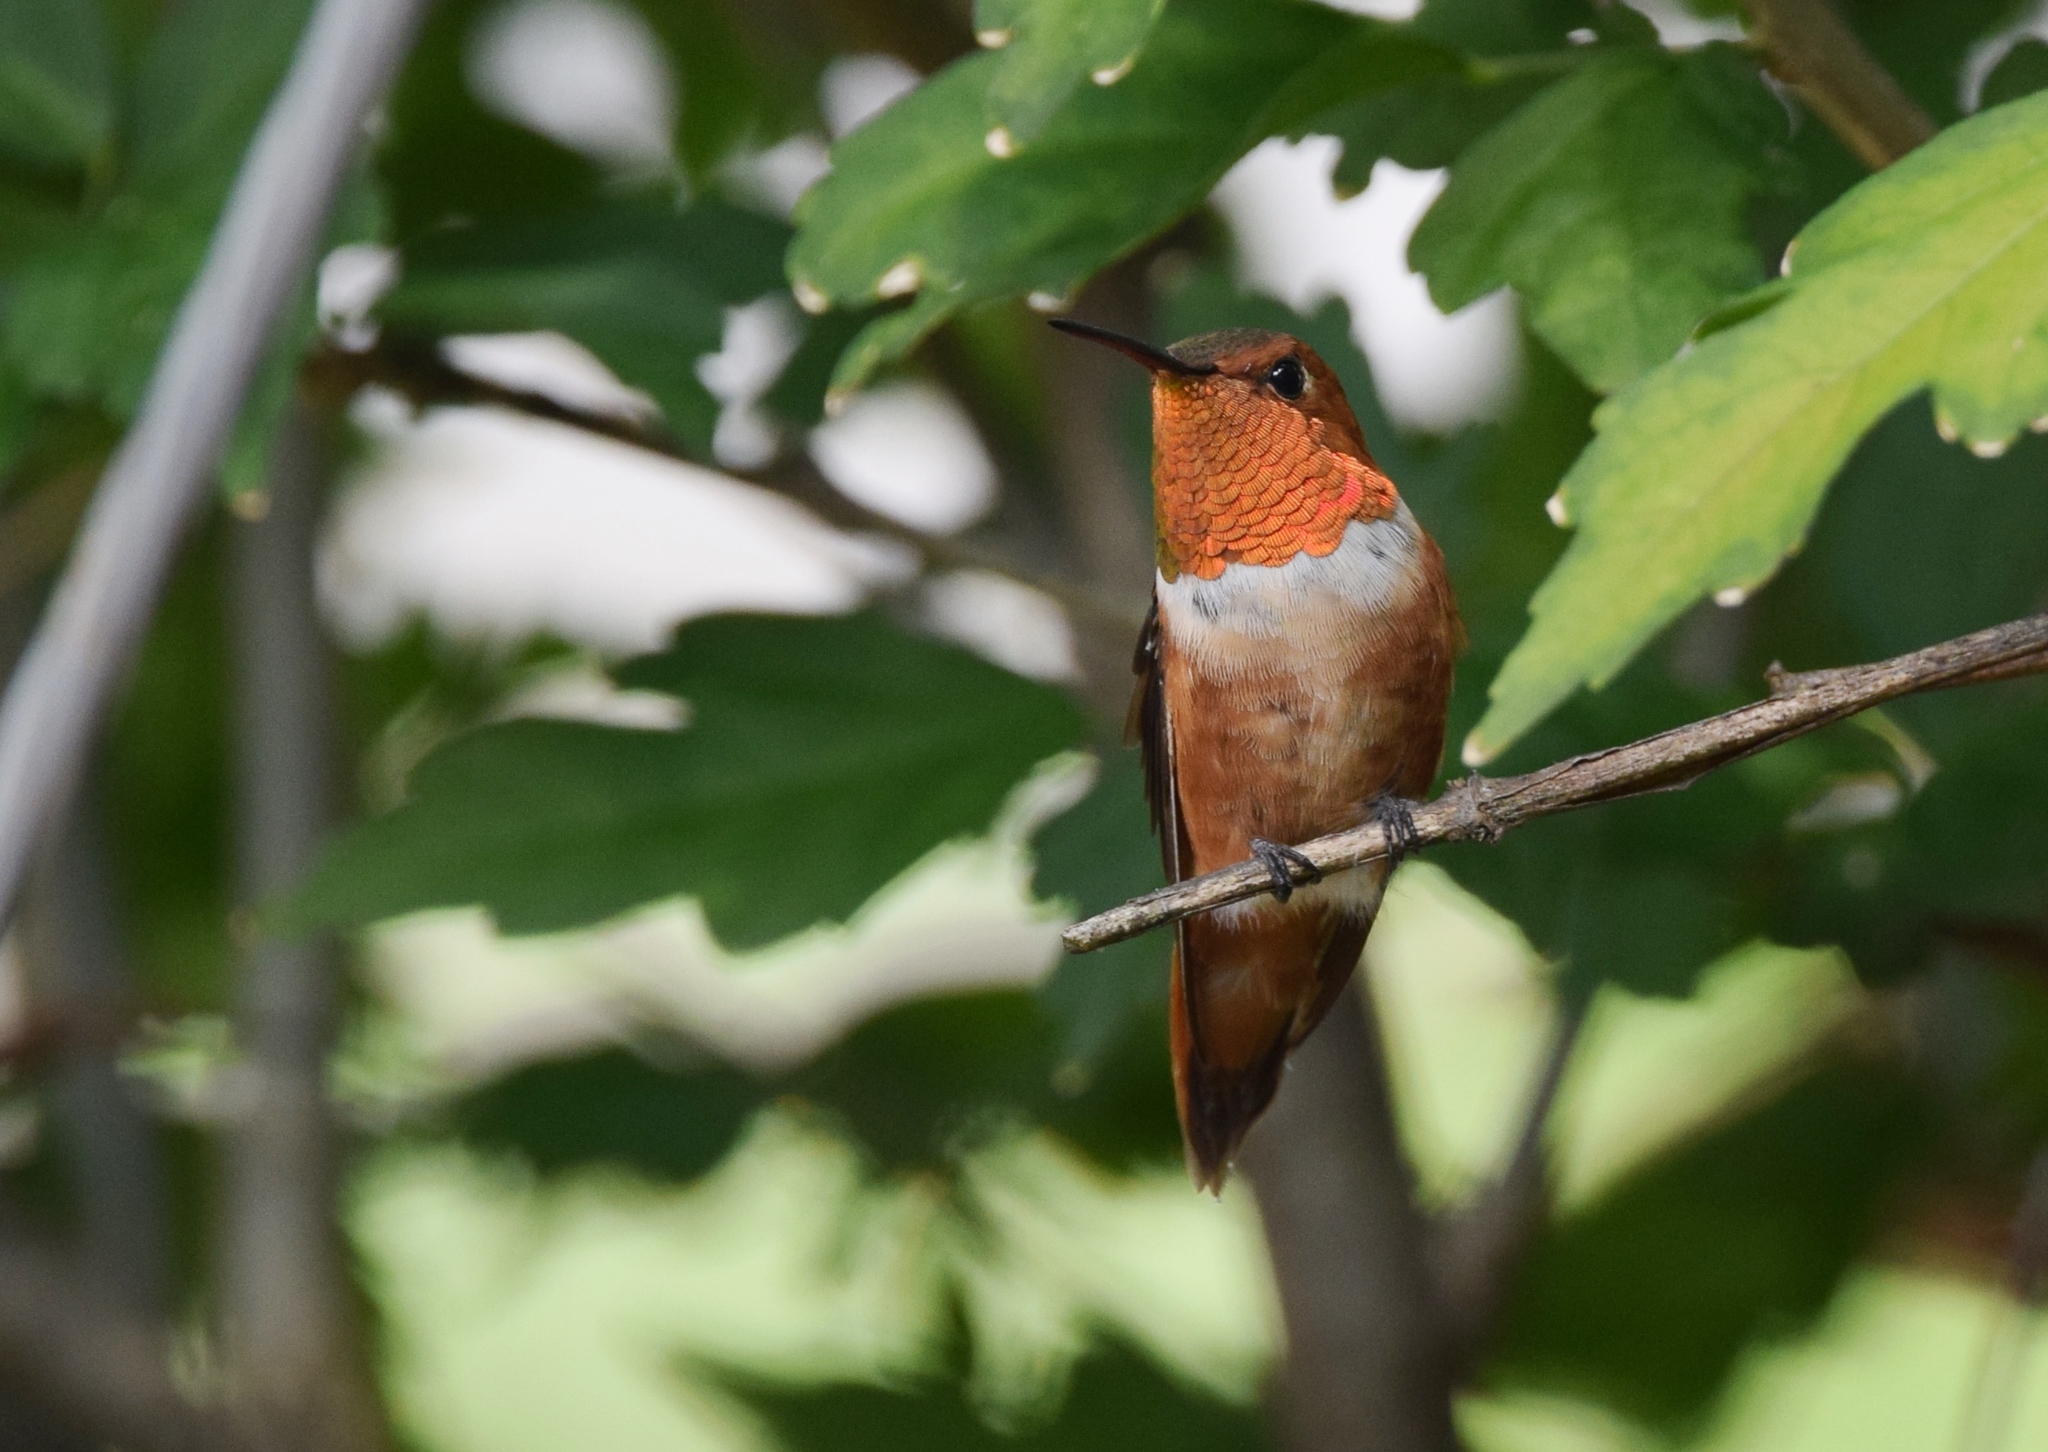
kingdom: Animalia
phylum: Chordata
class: Aves
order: Apodiformes
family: Trochilidae
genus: Selasphorus
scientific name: Selasphorus rufus
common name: Rufous hummingbird
